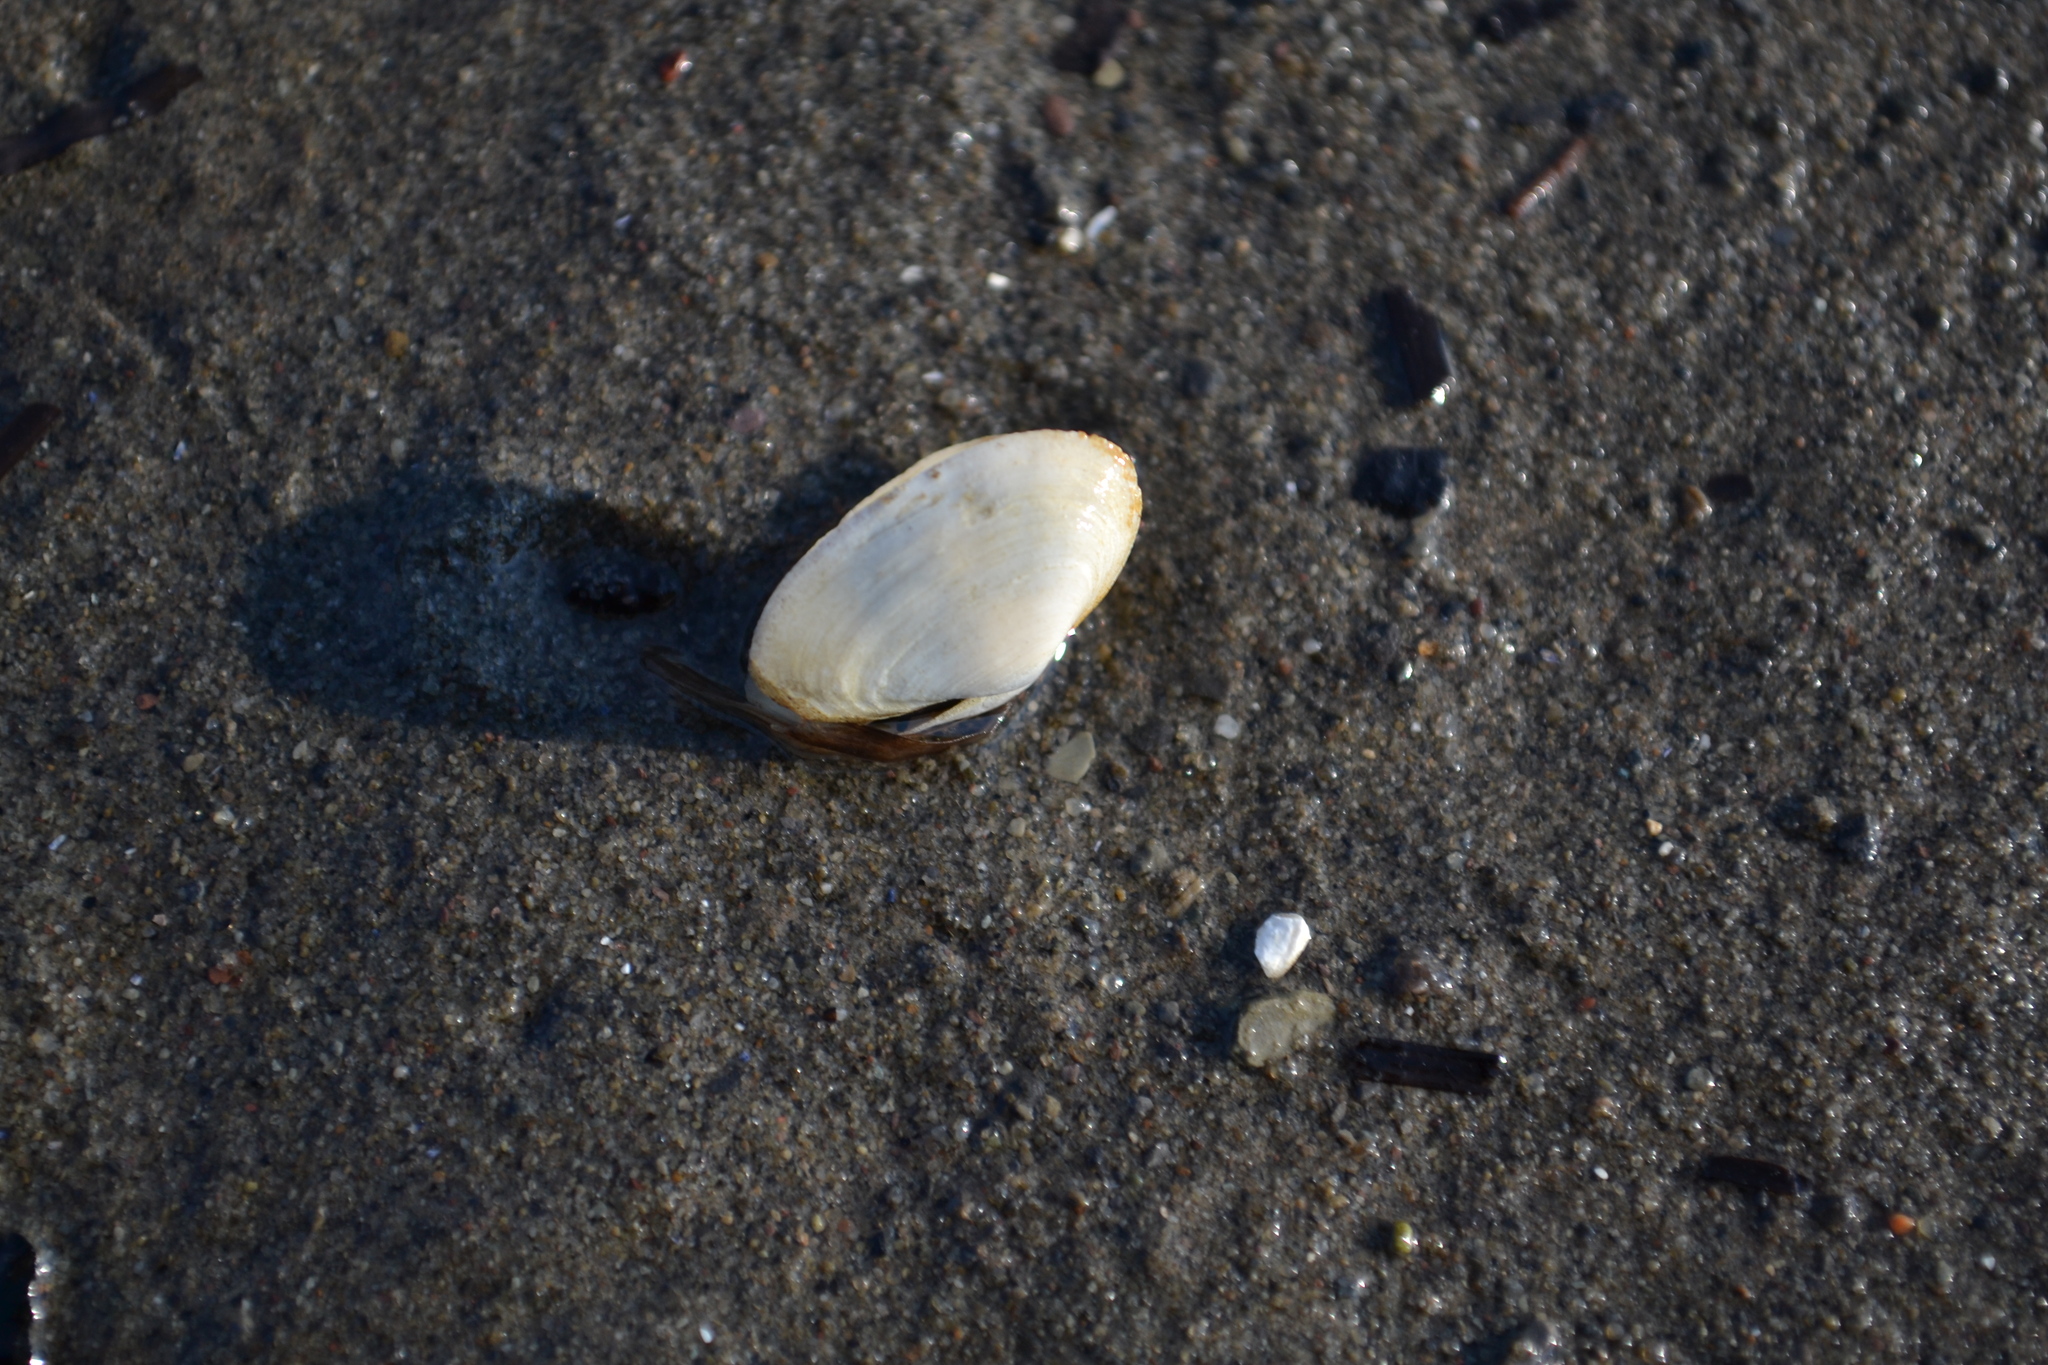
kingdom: Animalia
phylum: Mollusca
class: Bivalvia
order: Myida
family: Myidae
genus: Mya
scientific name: Mya arenaria
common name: Soft-shelled clam
